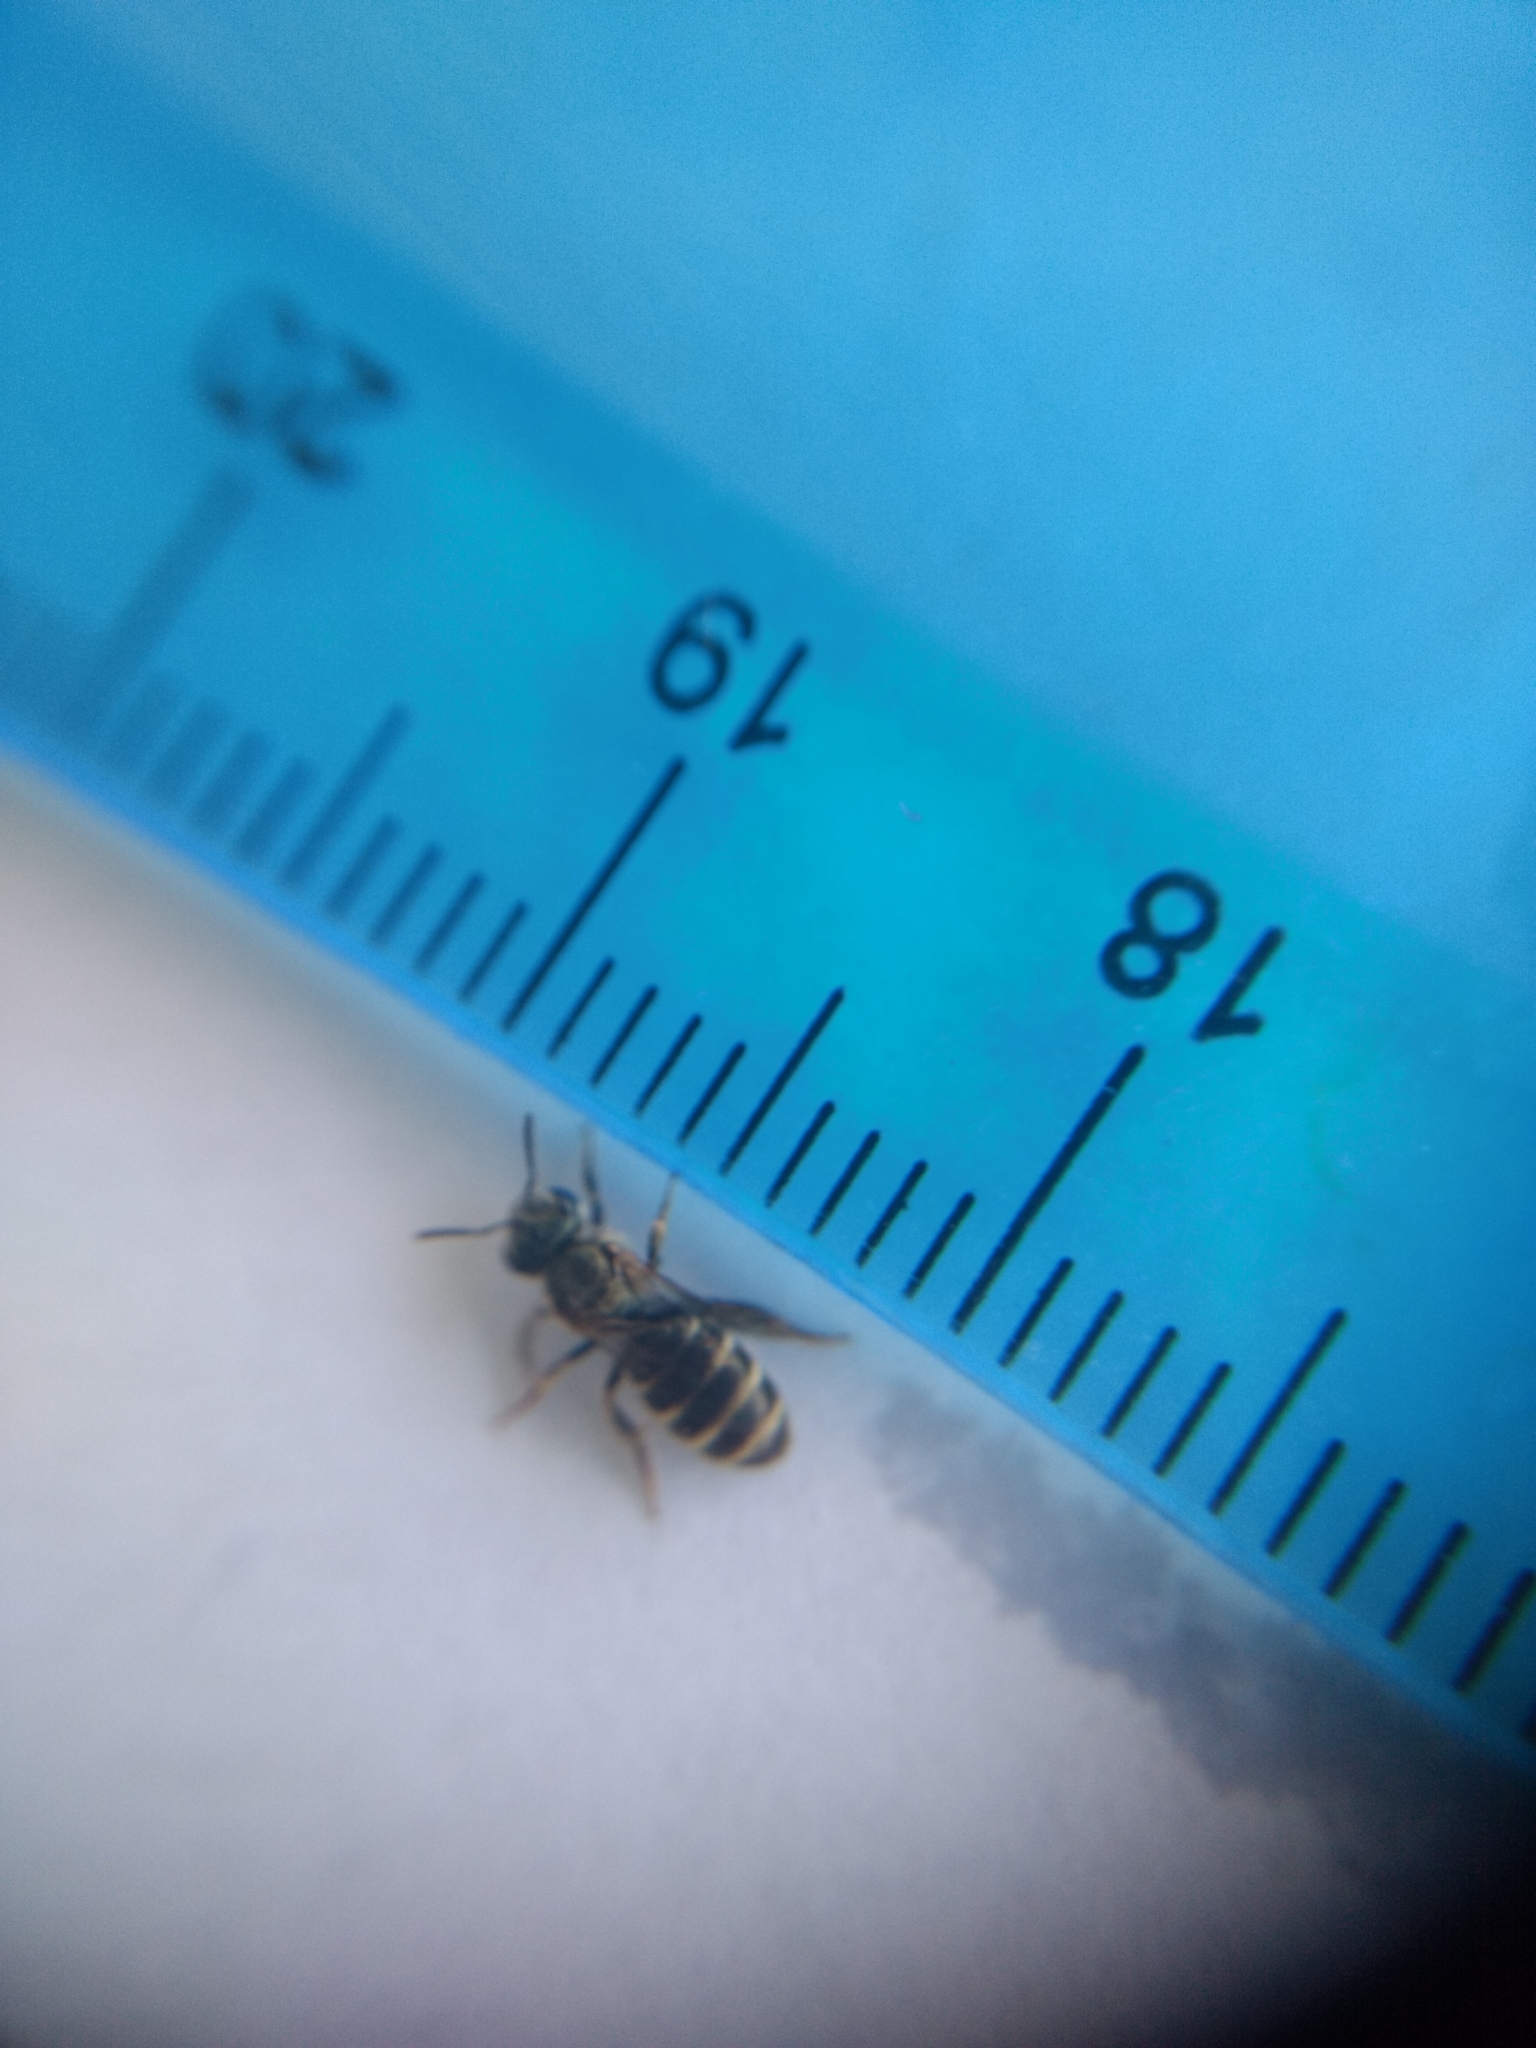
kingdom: Animalia
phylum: Arthropoda
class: Insecta
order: Hymenoptera
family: Halictidae
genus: Halictus
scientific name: Halictus tripartitus
